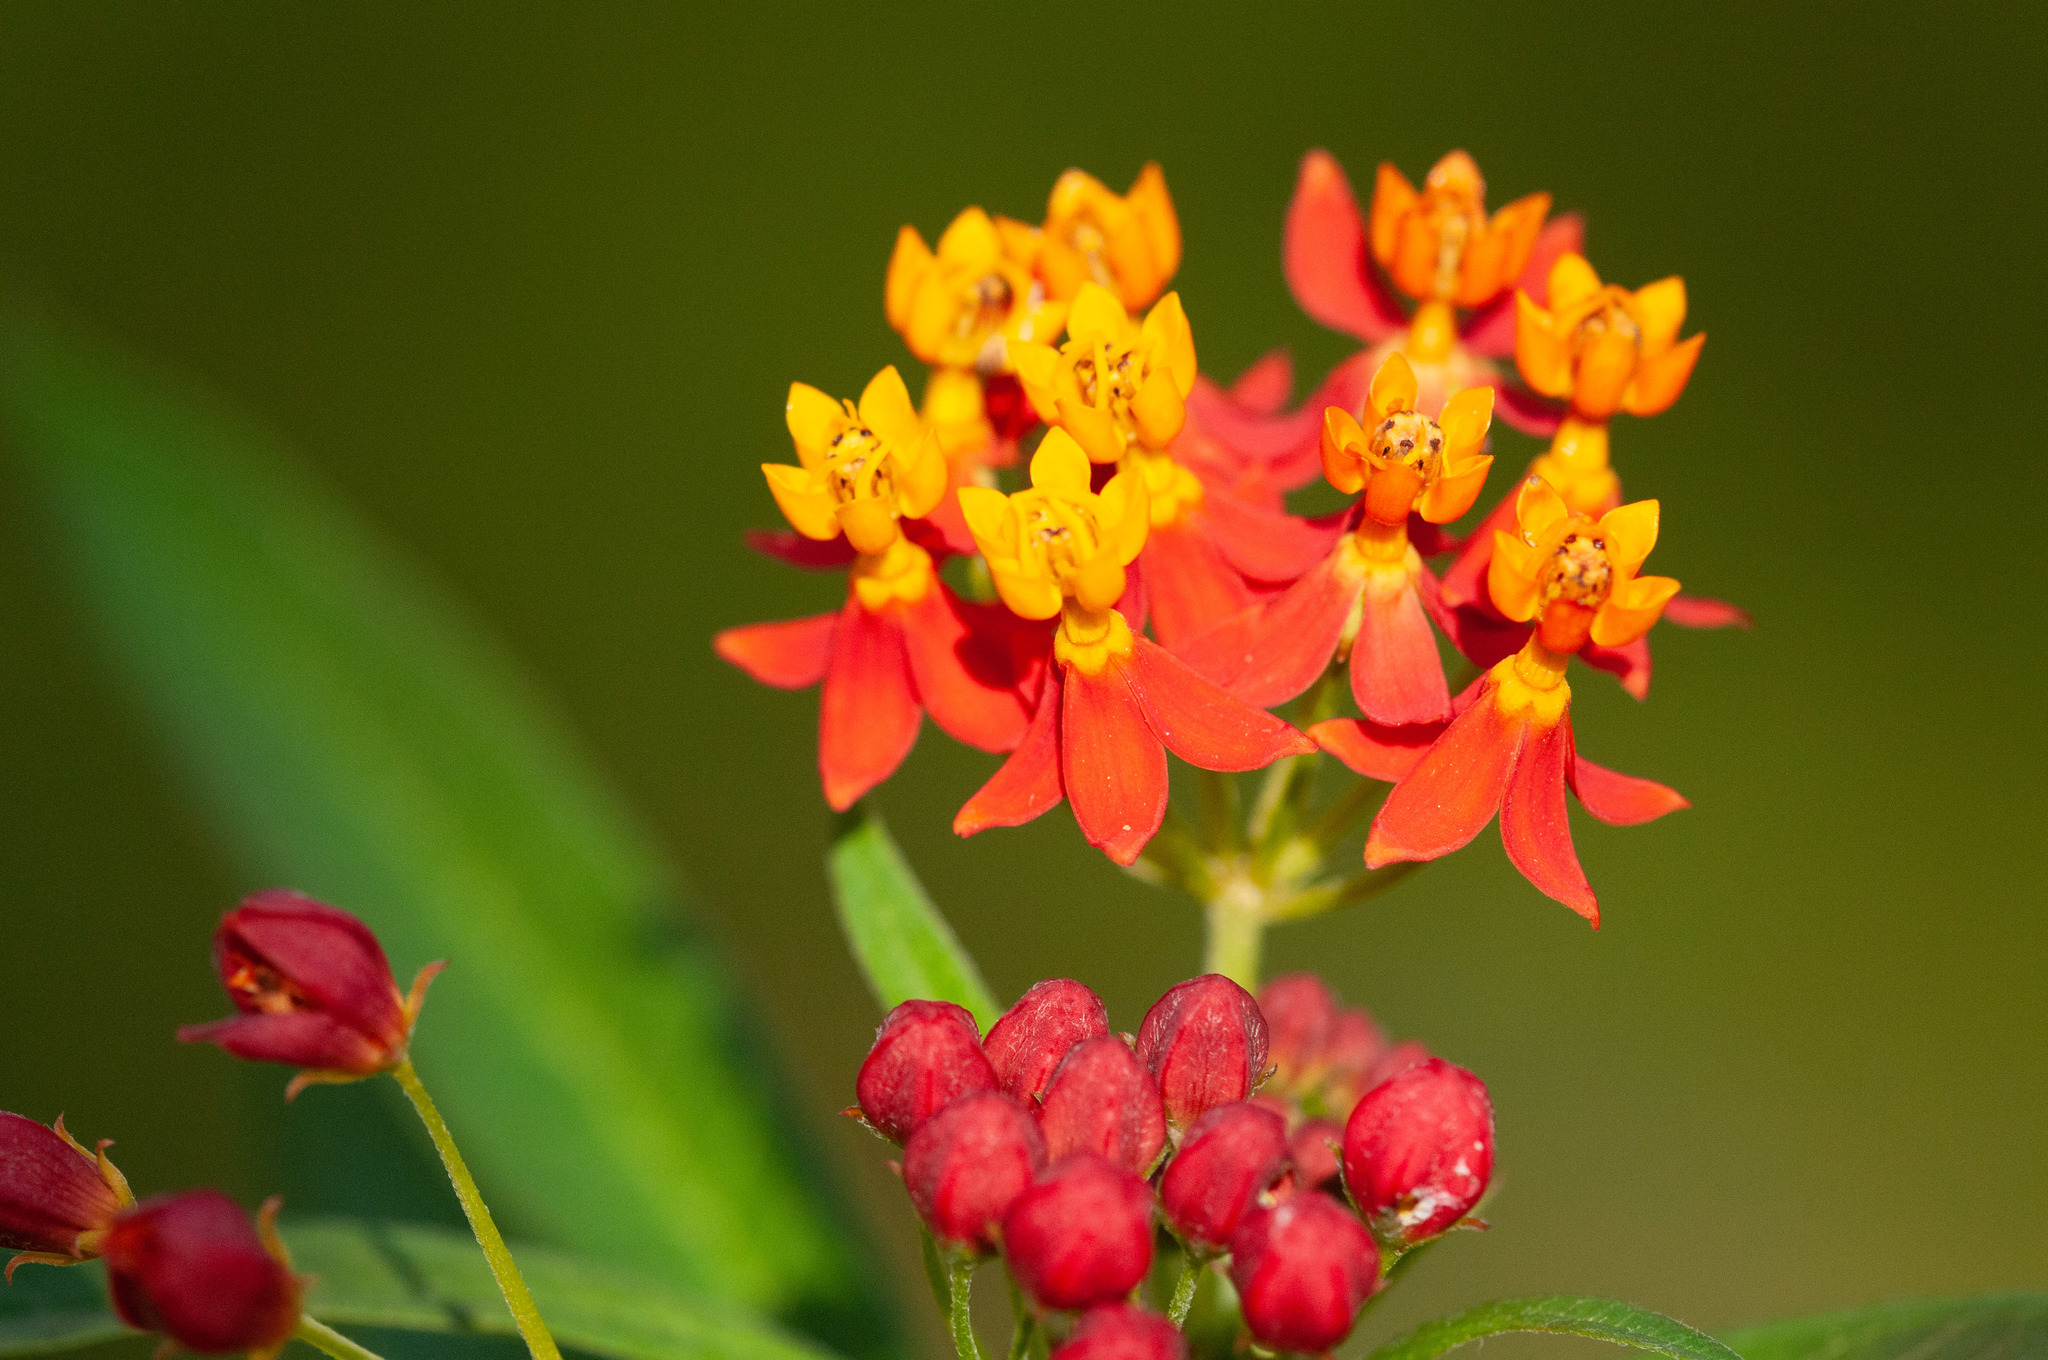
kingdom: Plantae
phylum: Tracheophyta
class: Magnoliopsida
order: Gentianales
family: Apocynaceae
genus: Asclepias
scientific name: Asclepias curassavica
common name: Bloodflower
